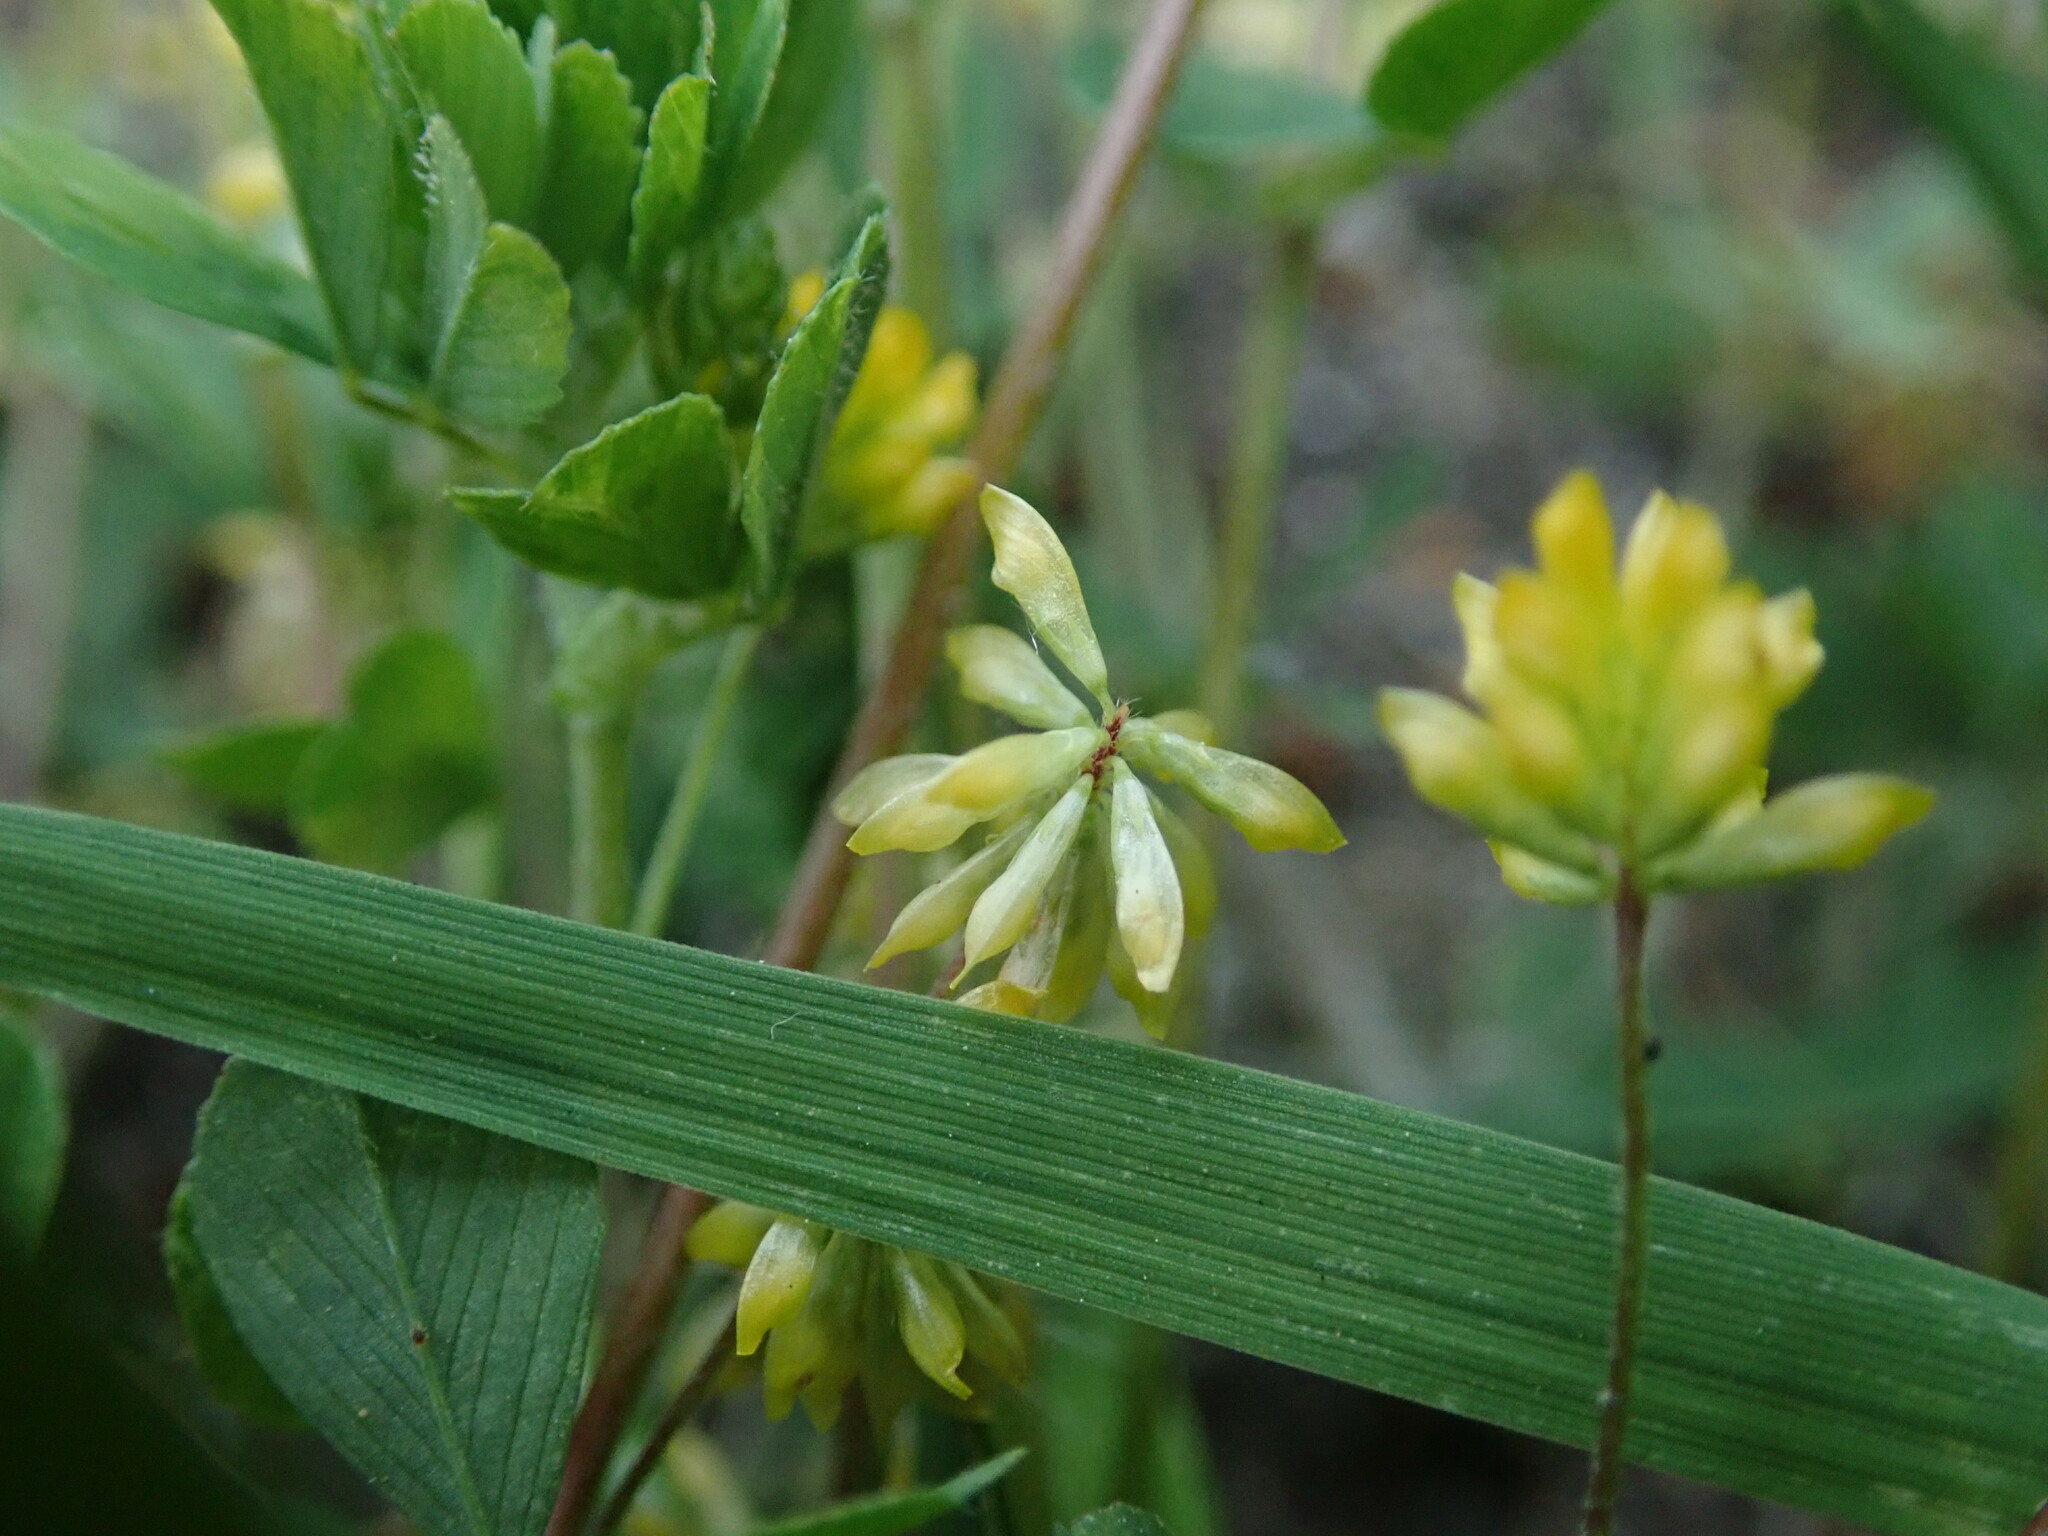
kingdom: Plantae
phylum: Tracheophyta
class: Magnoliopsida
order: Fabales
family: Fabaceae
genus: Trifolium
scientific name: Trifolium dubium
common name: Suckling clover
